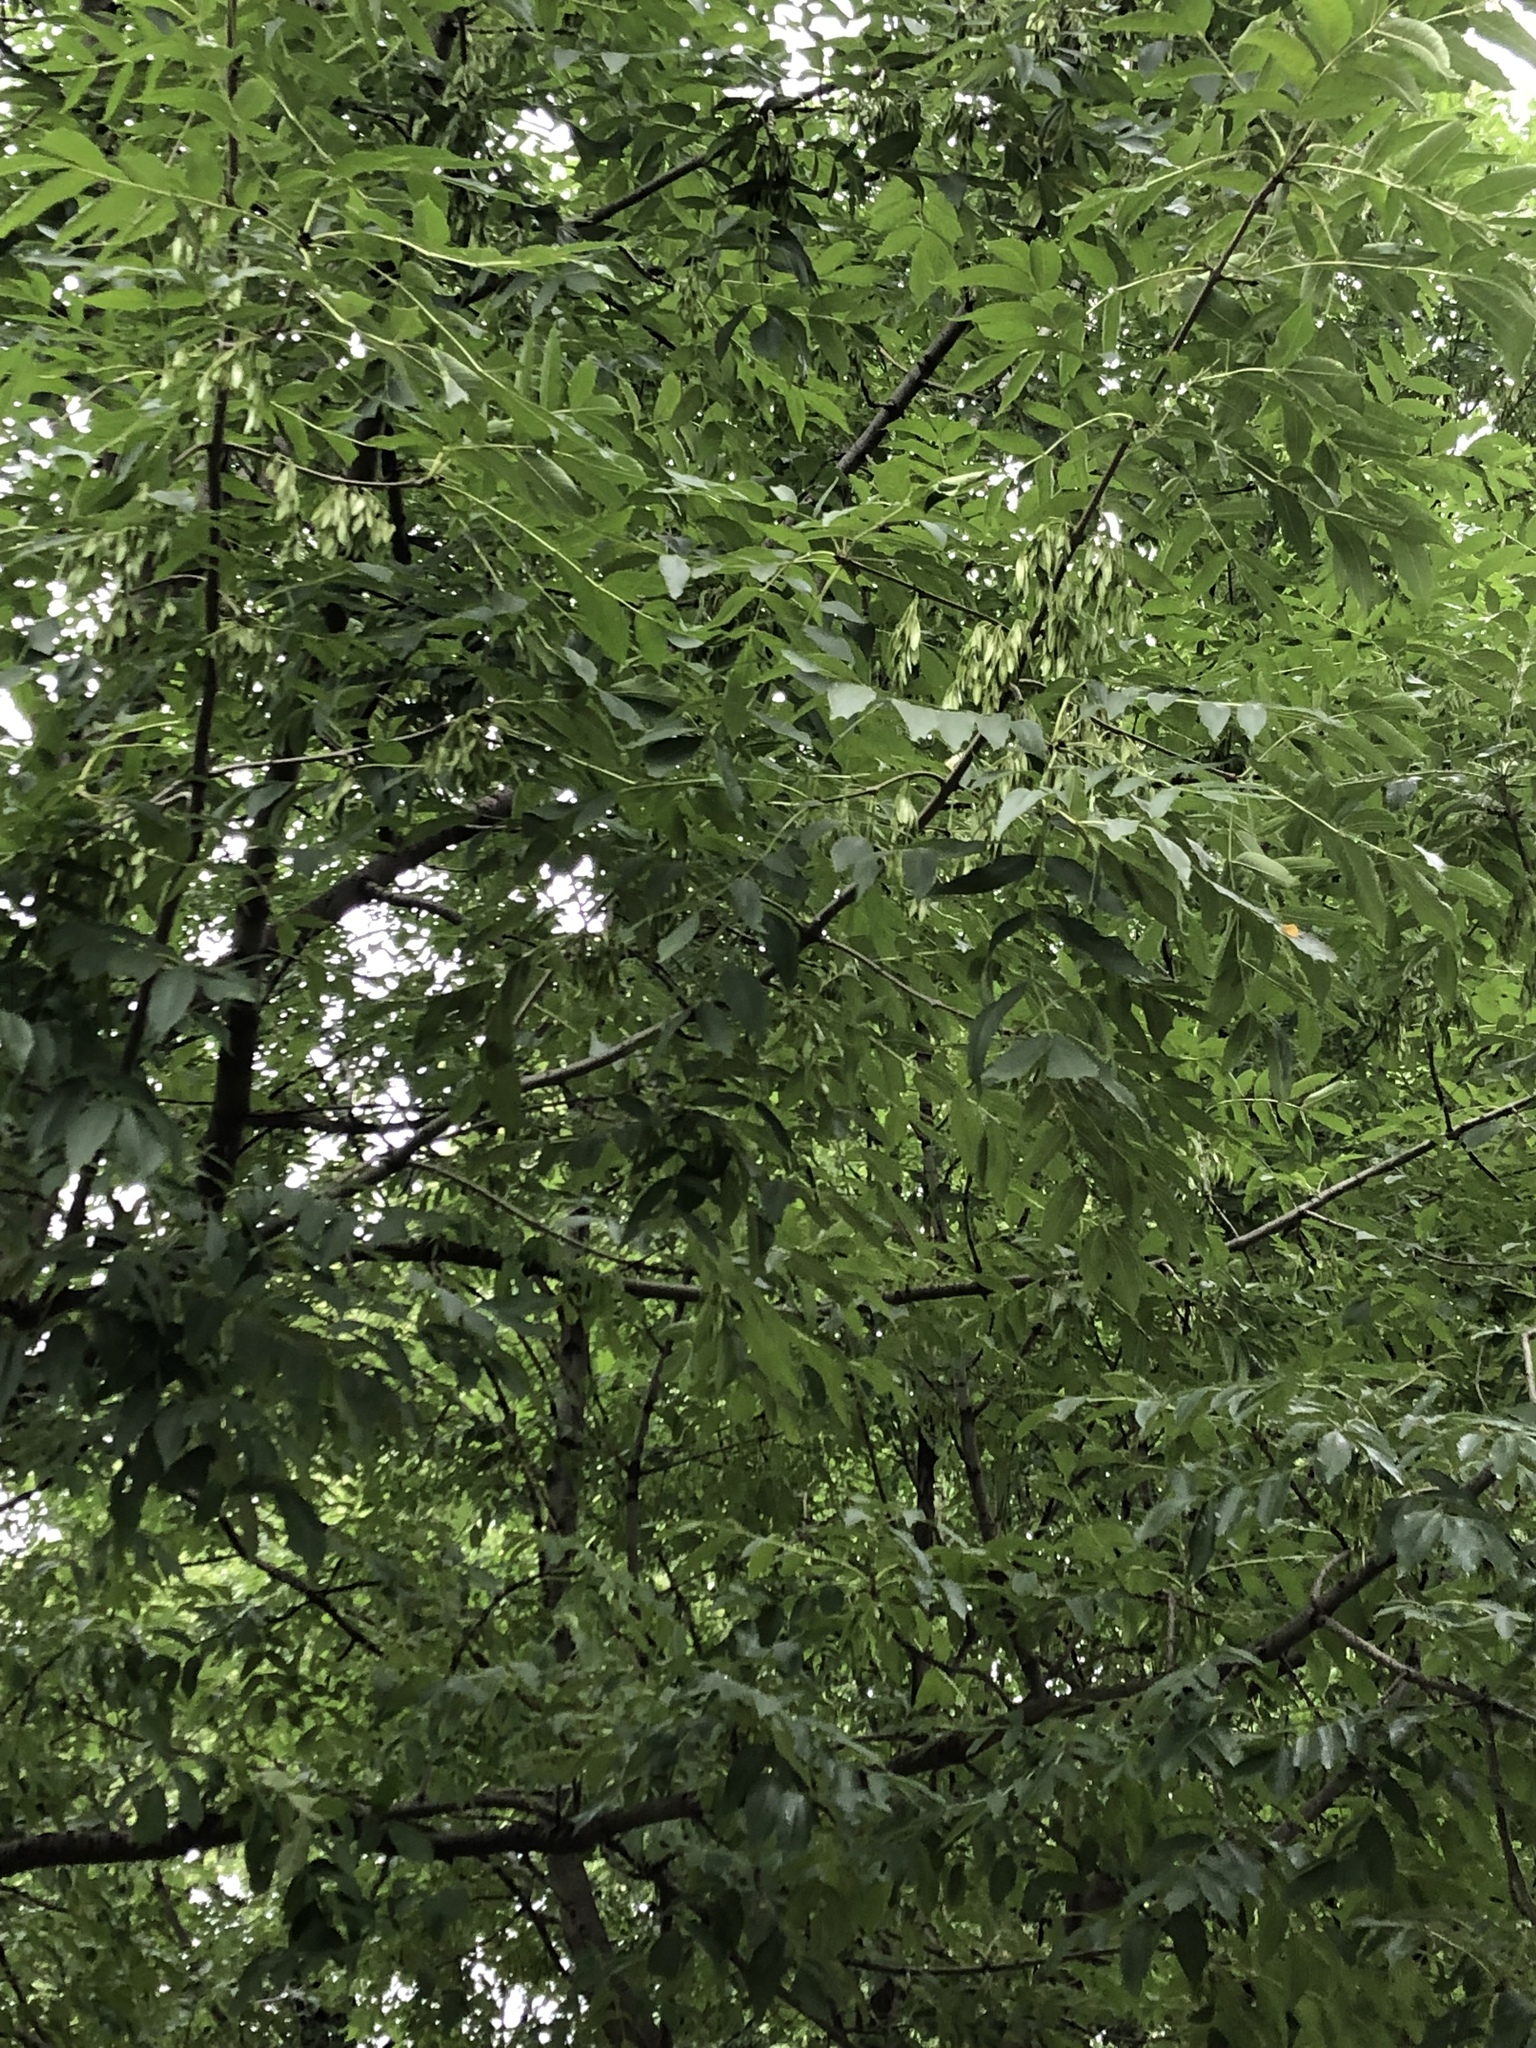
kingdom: Plantae
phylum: Tracheophyta
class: Magnoliopsida
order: Lamiales
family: Oleaceae
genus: Fraxinus
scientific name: Fraxinus excelsior
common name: European ash
